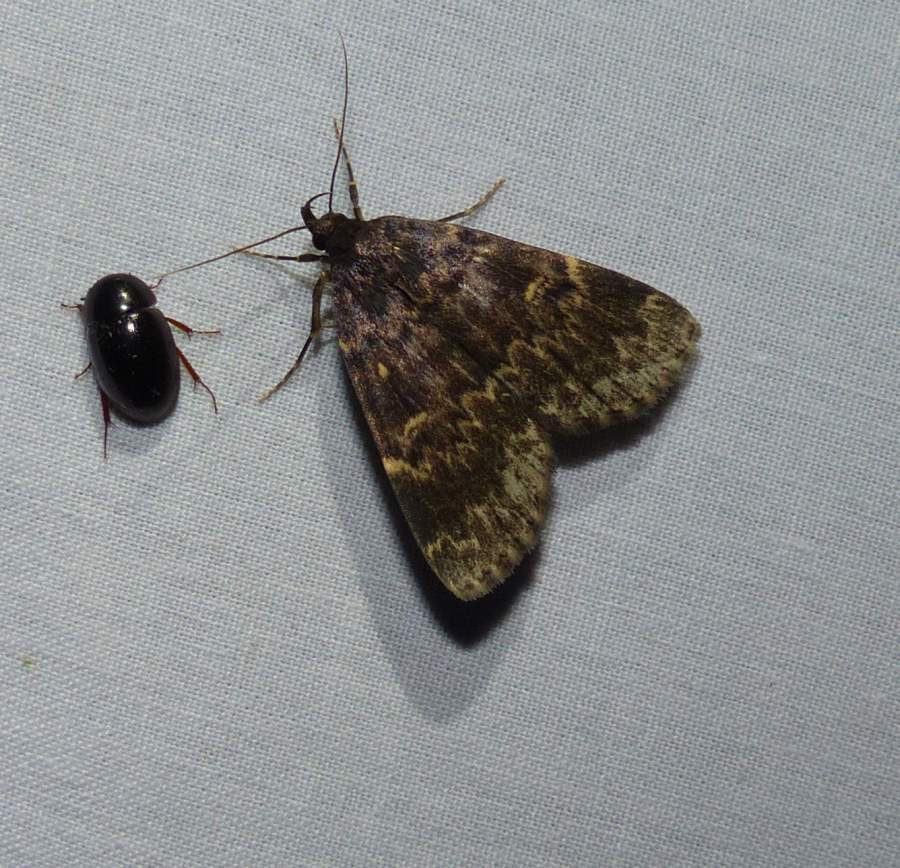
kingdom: Animalia
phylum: Arthropoda
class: Insecta
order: Lepidoptera
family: Erebidae
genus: Idia
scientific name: Idia lubricalis
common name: Twin-striped tabby
